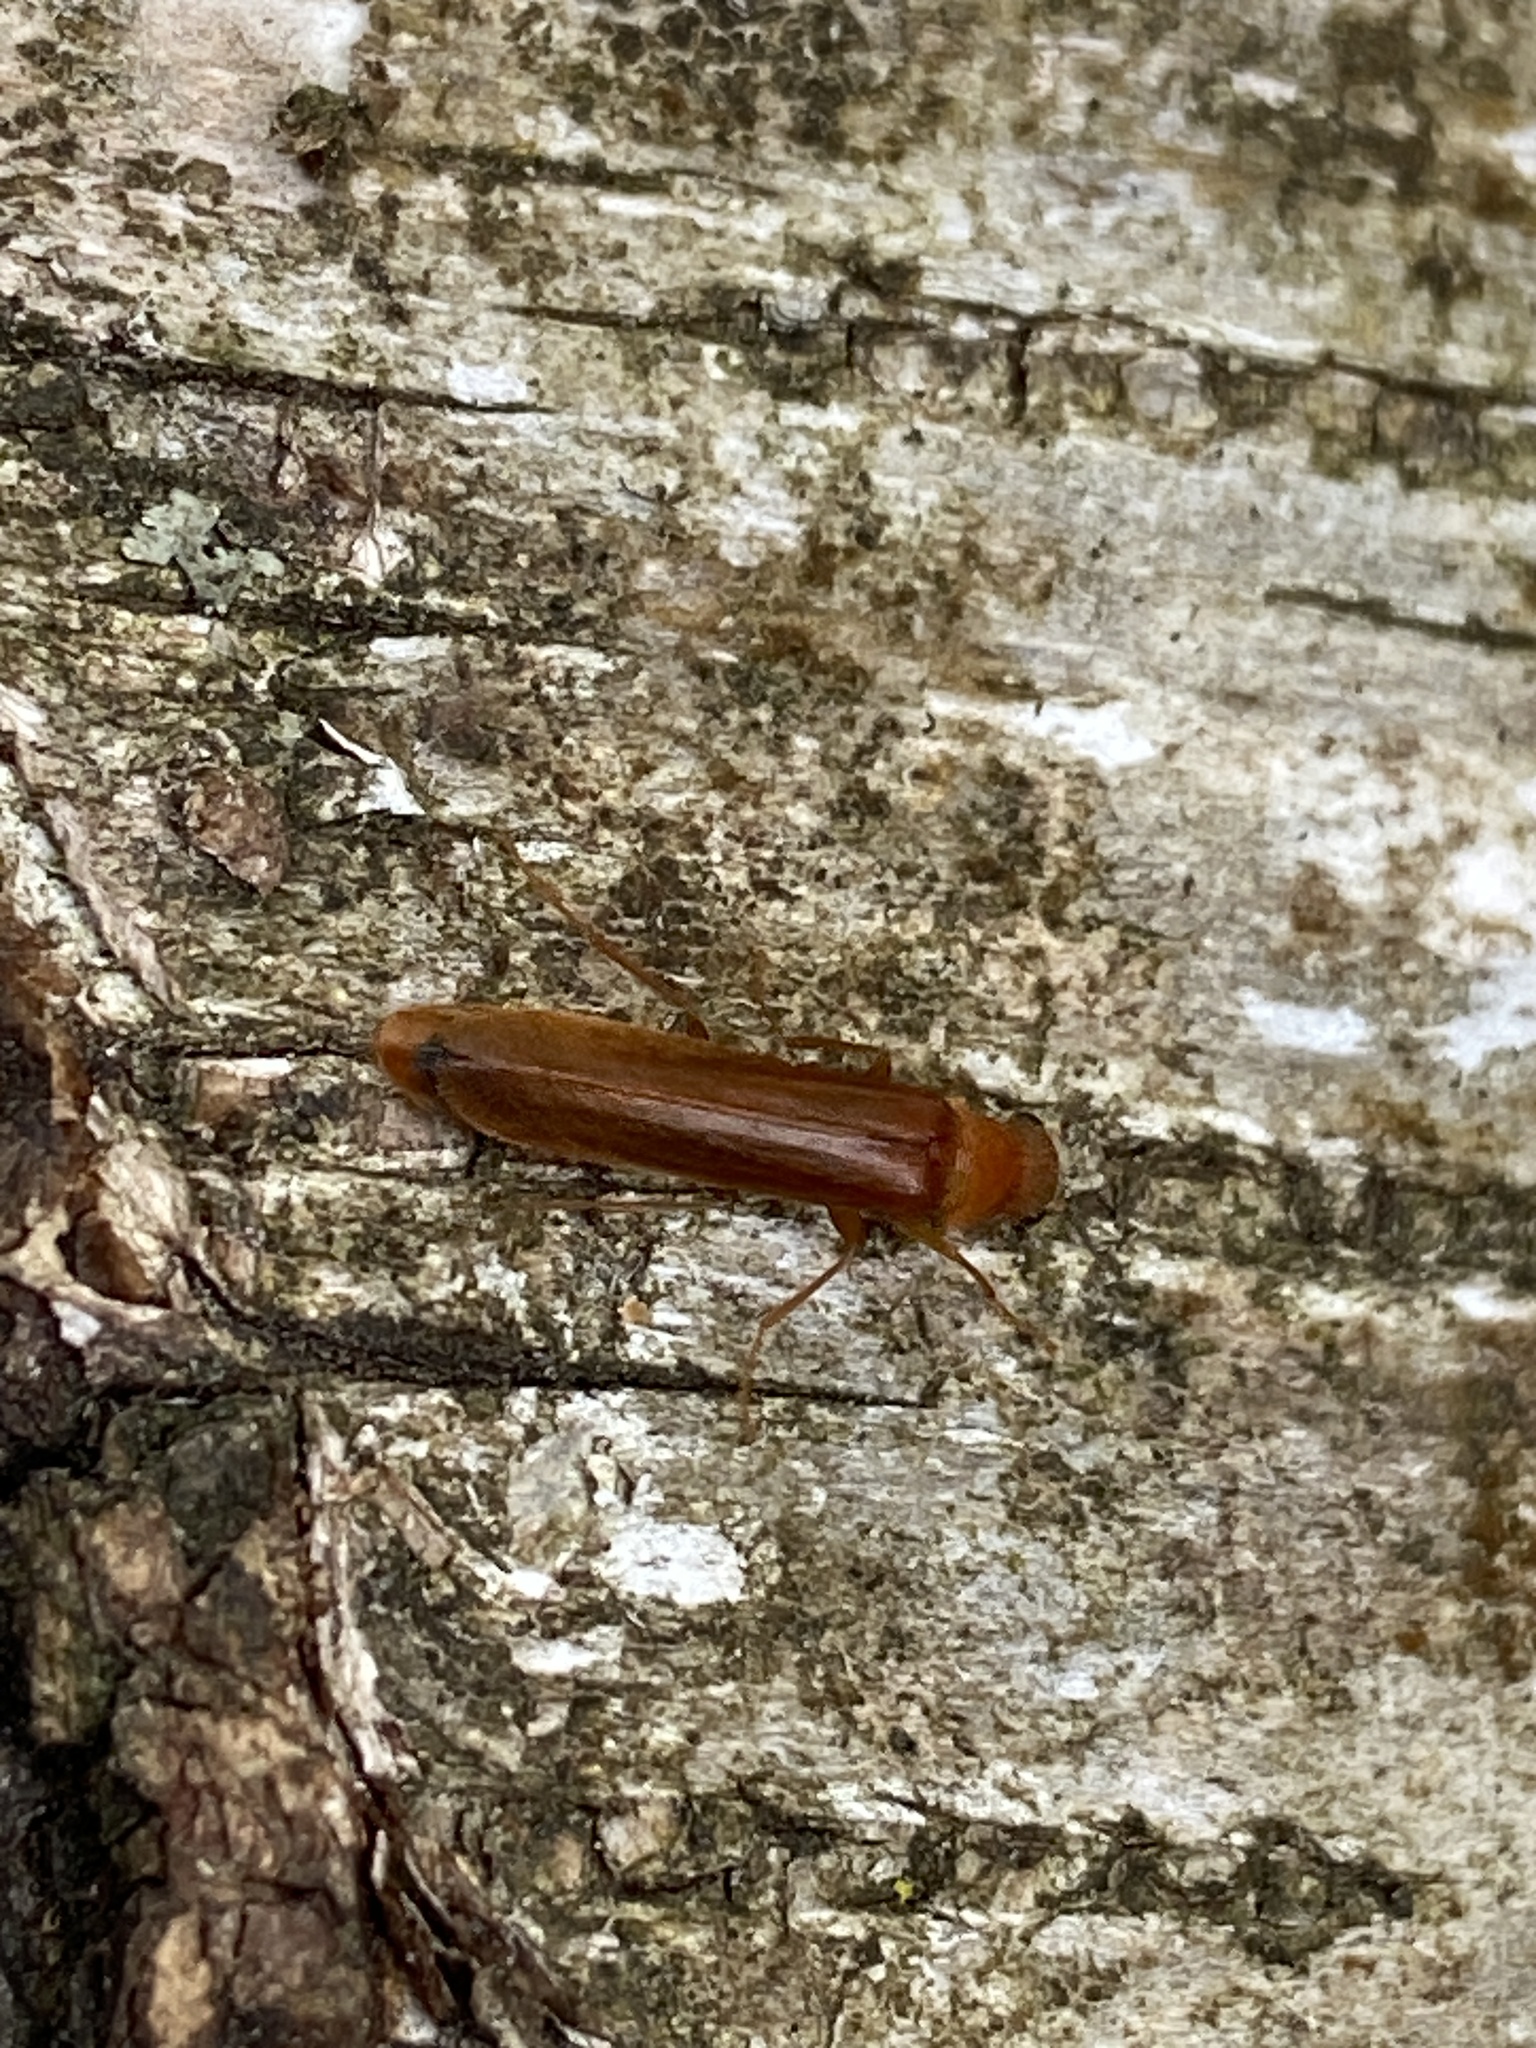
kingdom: Animalia
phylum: Arthropoda
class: Insecta
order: Coleoptera
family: Lymexylidae
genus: Hylecoetus
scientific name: Hylecoetus dermestoides
